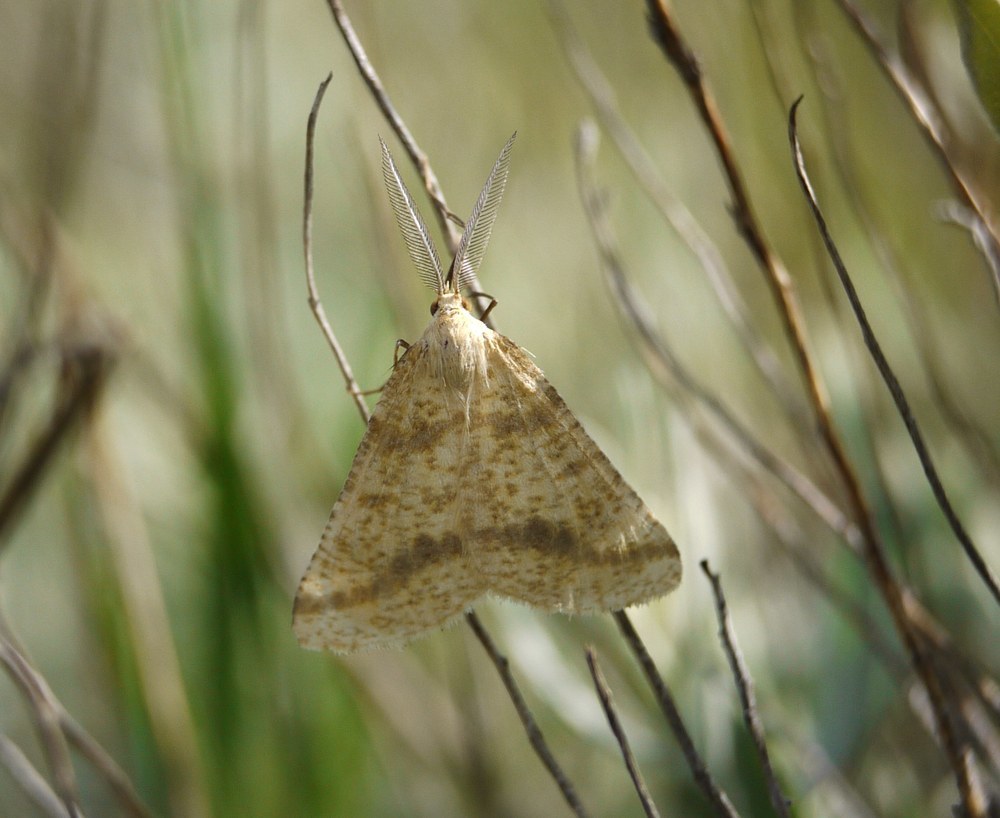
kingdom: Animalia
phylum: Arthropoda
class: Insecta
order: Lepidoptera
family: Geometridae
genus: Aspitates
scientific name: Aspitates ochrearia
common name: Yellow belle
